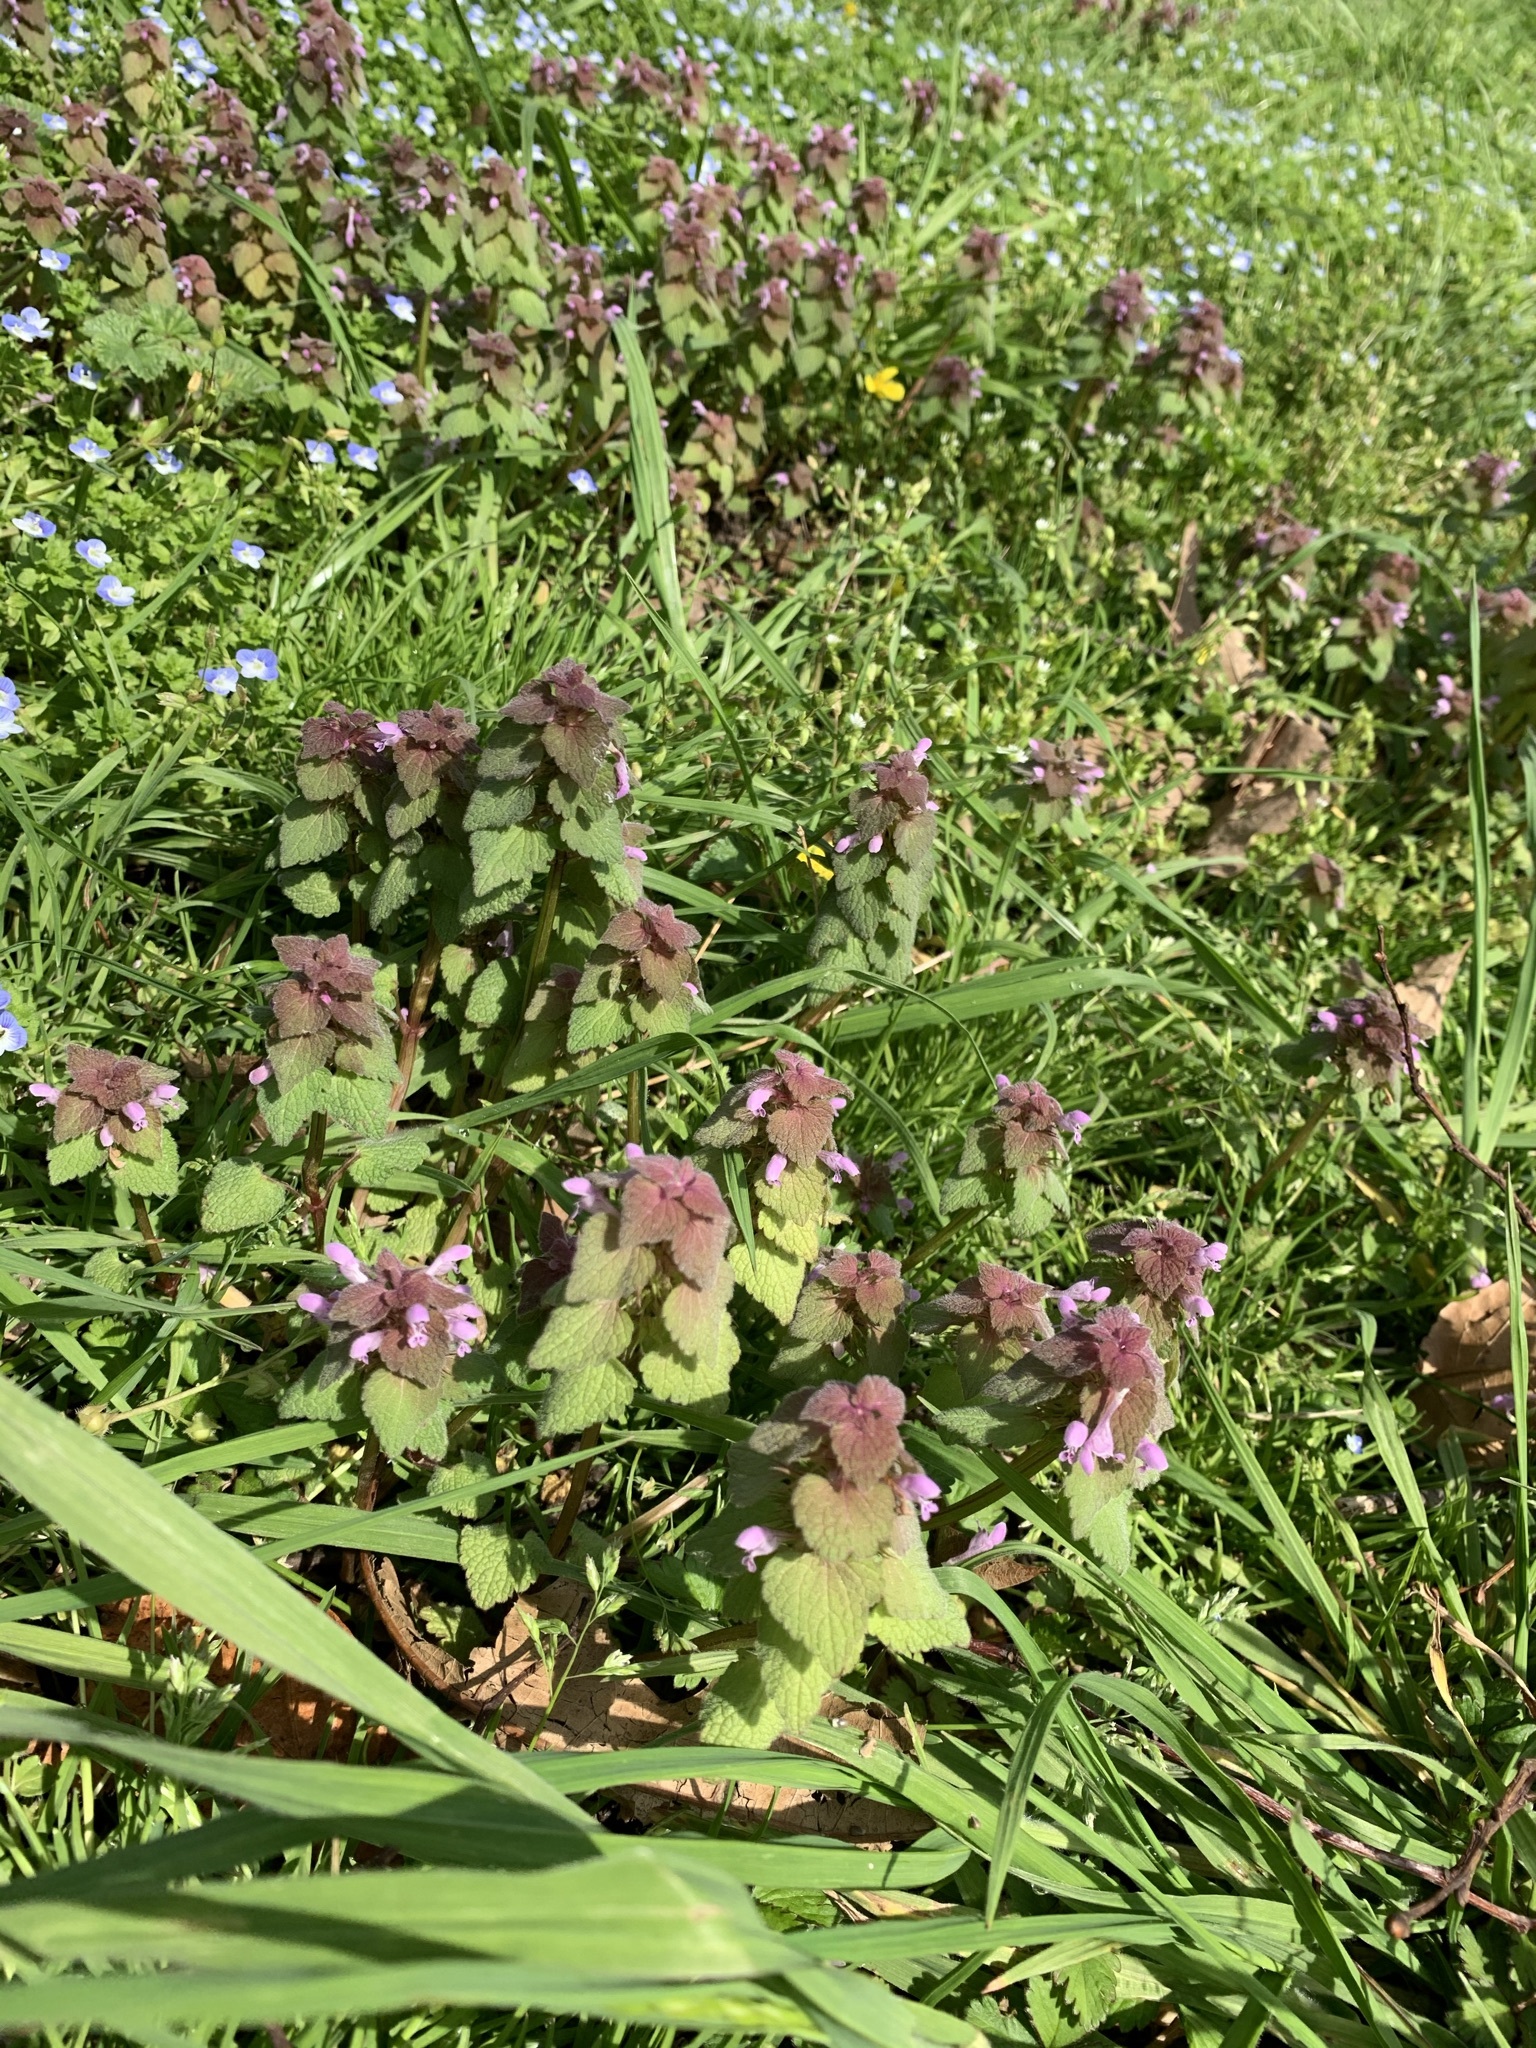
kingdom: Plantae
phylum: Tracheophyta
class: Magnoliopsida
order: Lamiales
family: Lamiaceae
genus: Lamium
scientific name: Lamium purpureum
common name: Red dead-nettle
